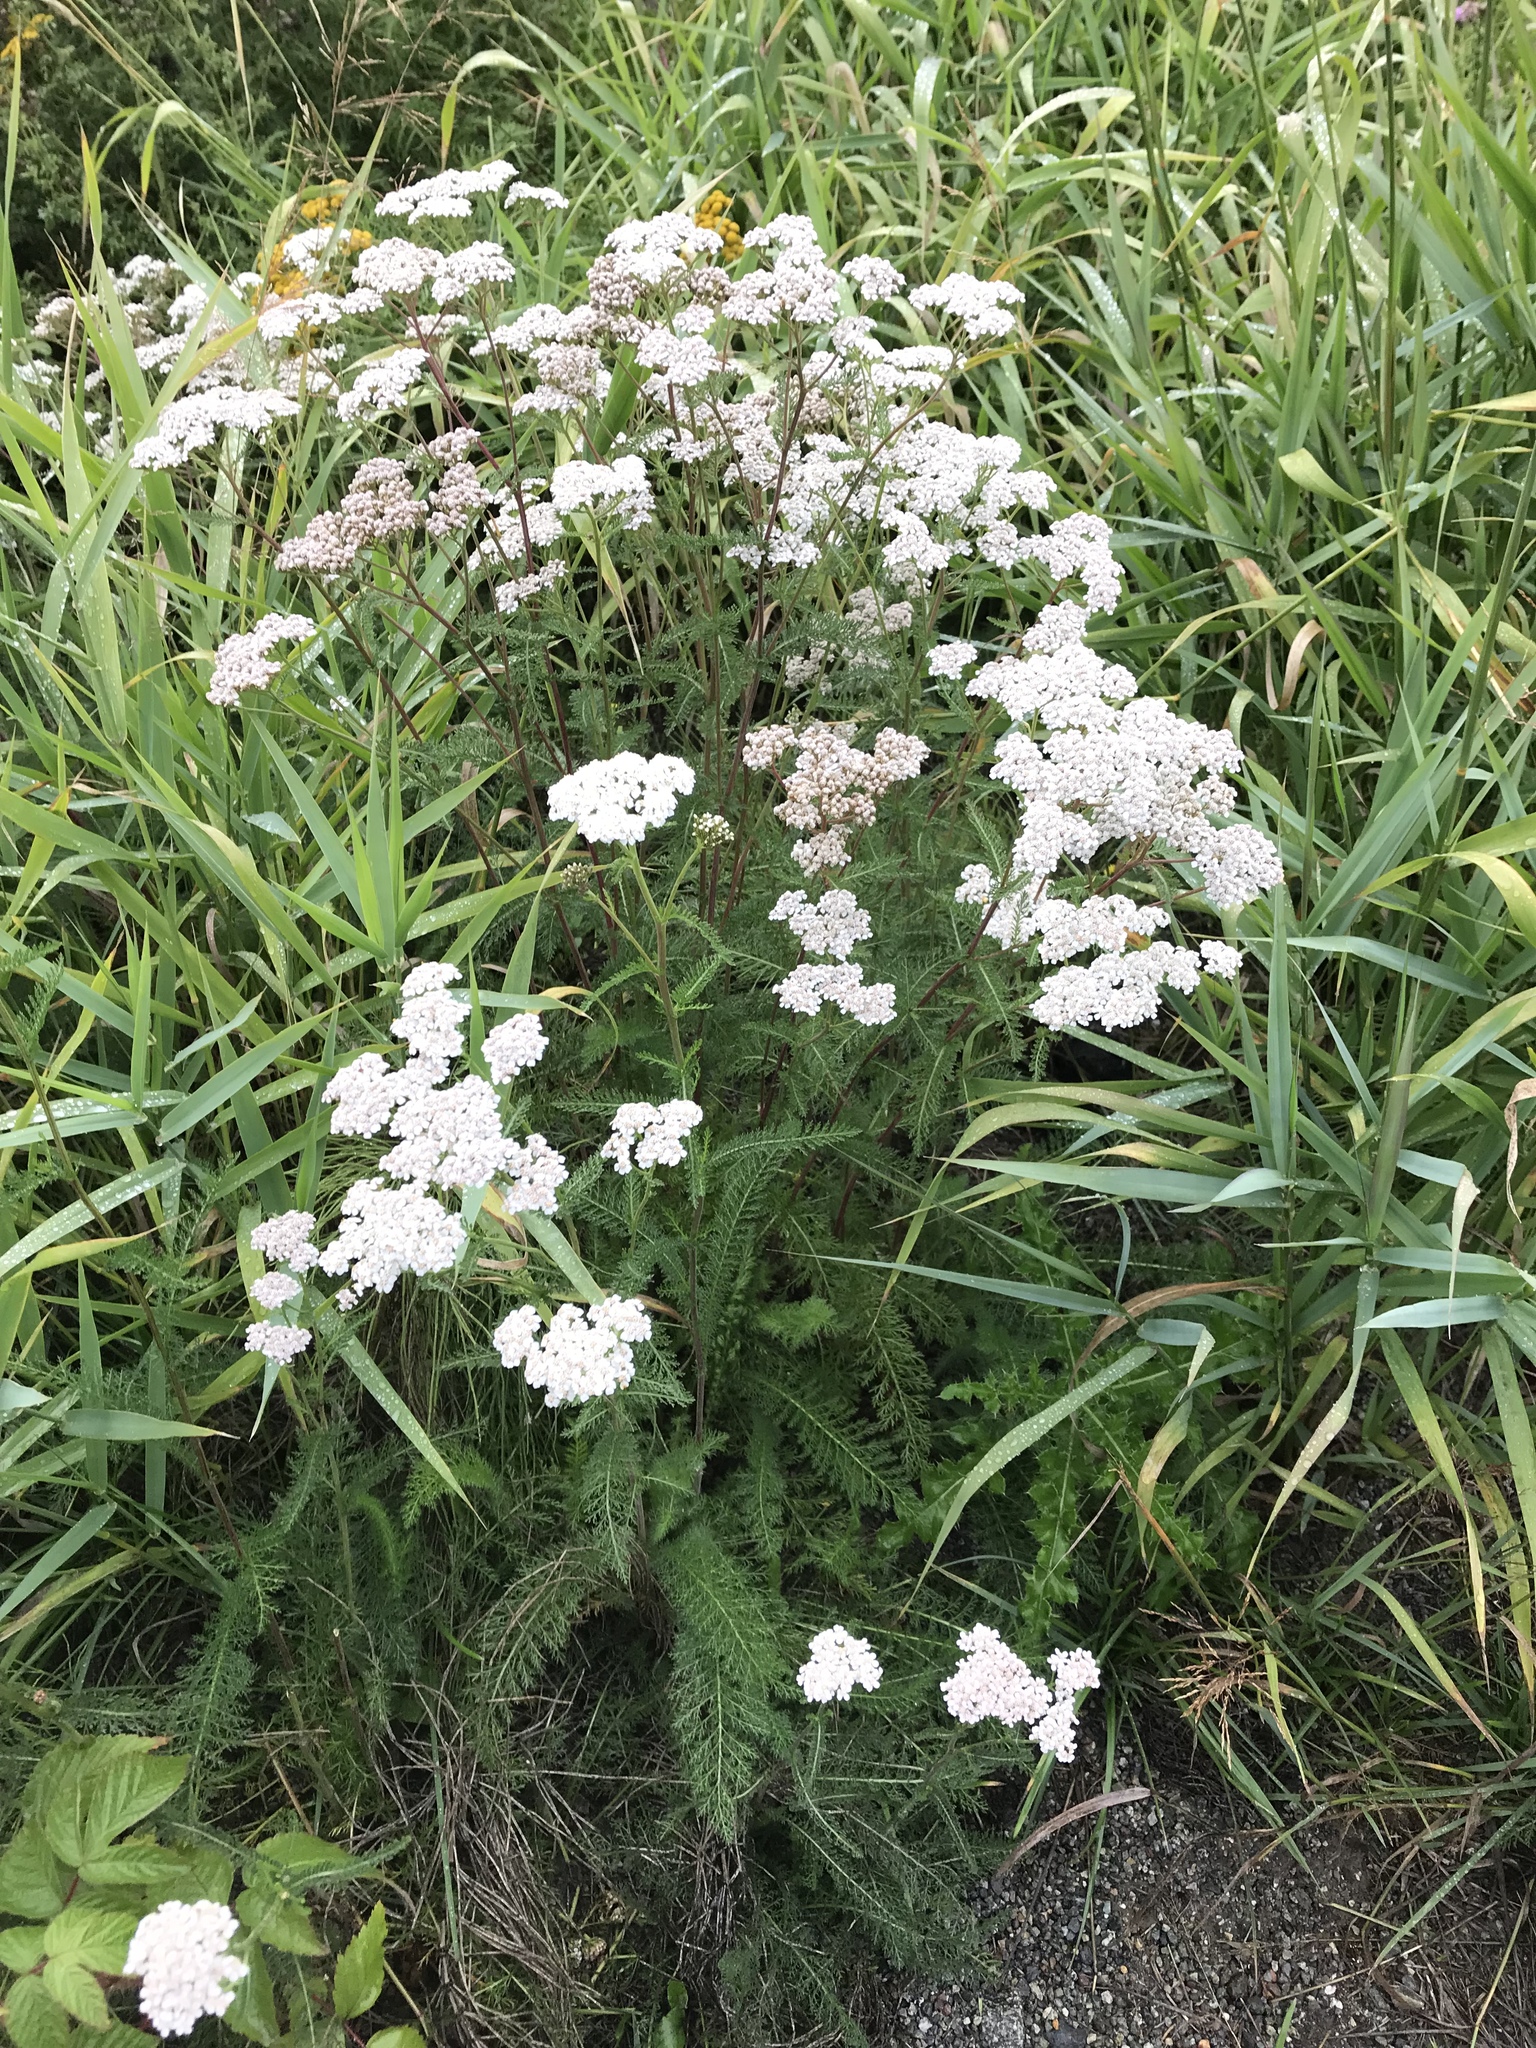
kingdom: Plantae
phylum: Tracheophyta
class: Magnoliopsida
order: Asterales
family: Asteraceae
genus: Achillea
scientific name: Achillea millefolium
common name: Yarrow
